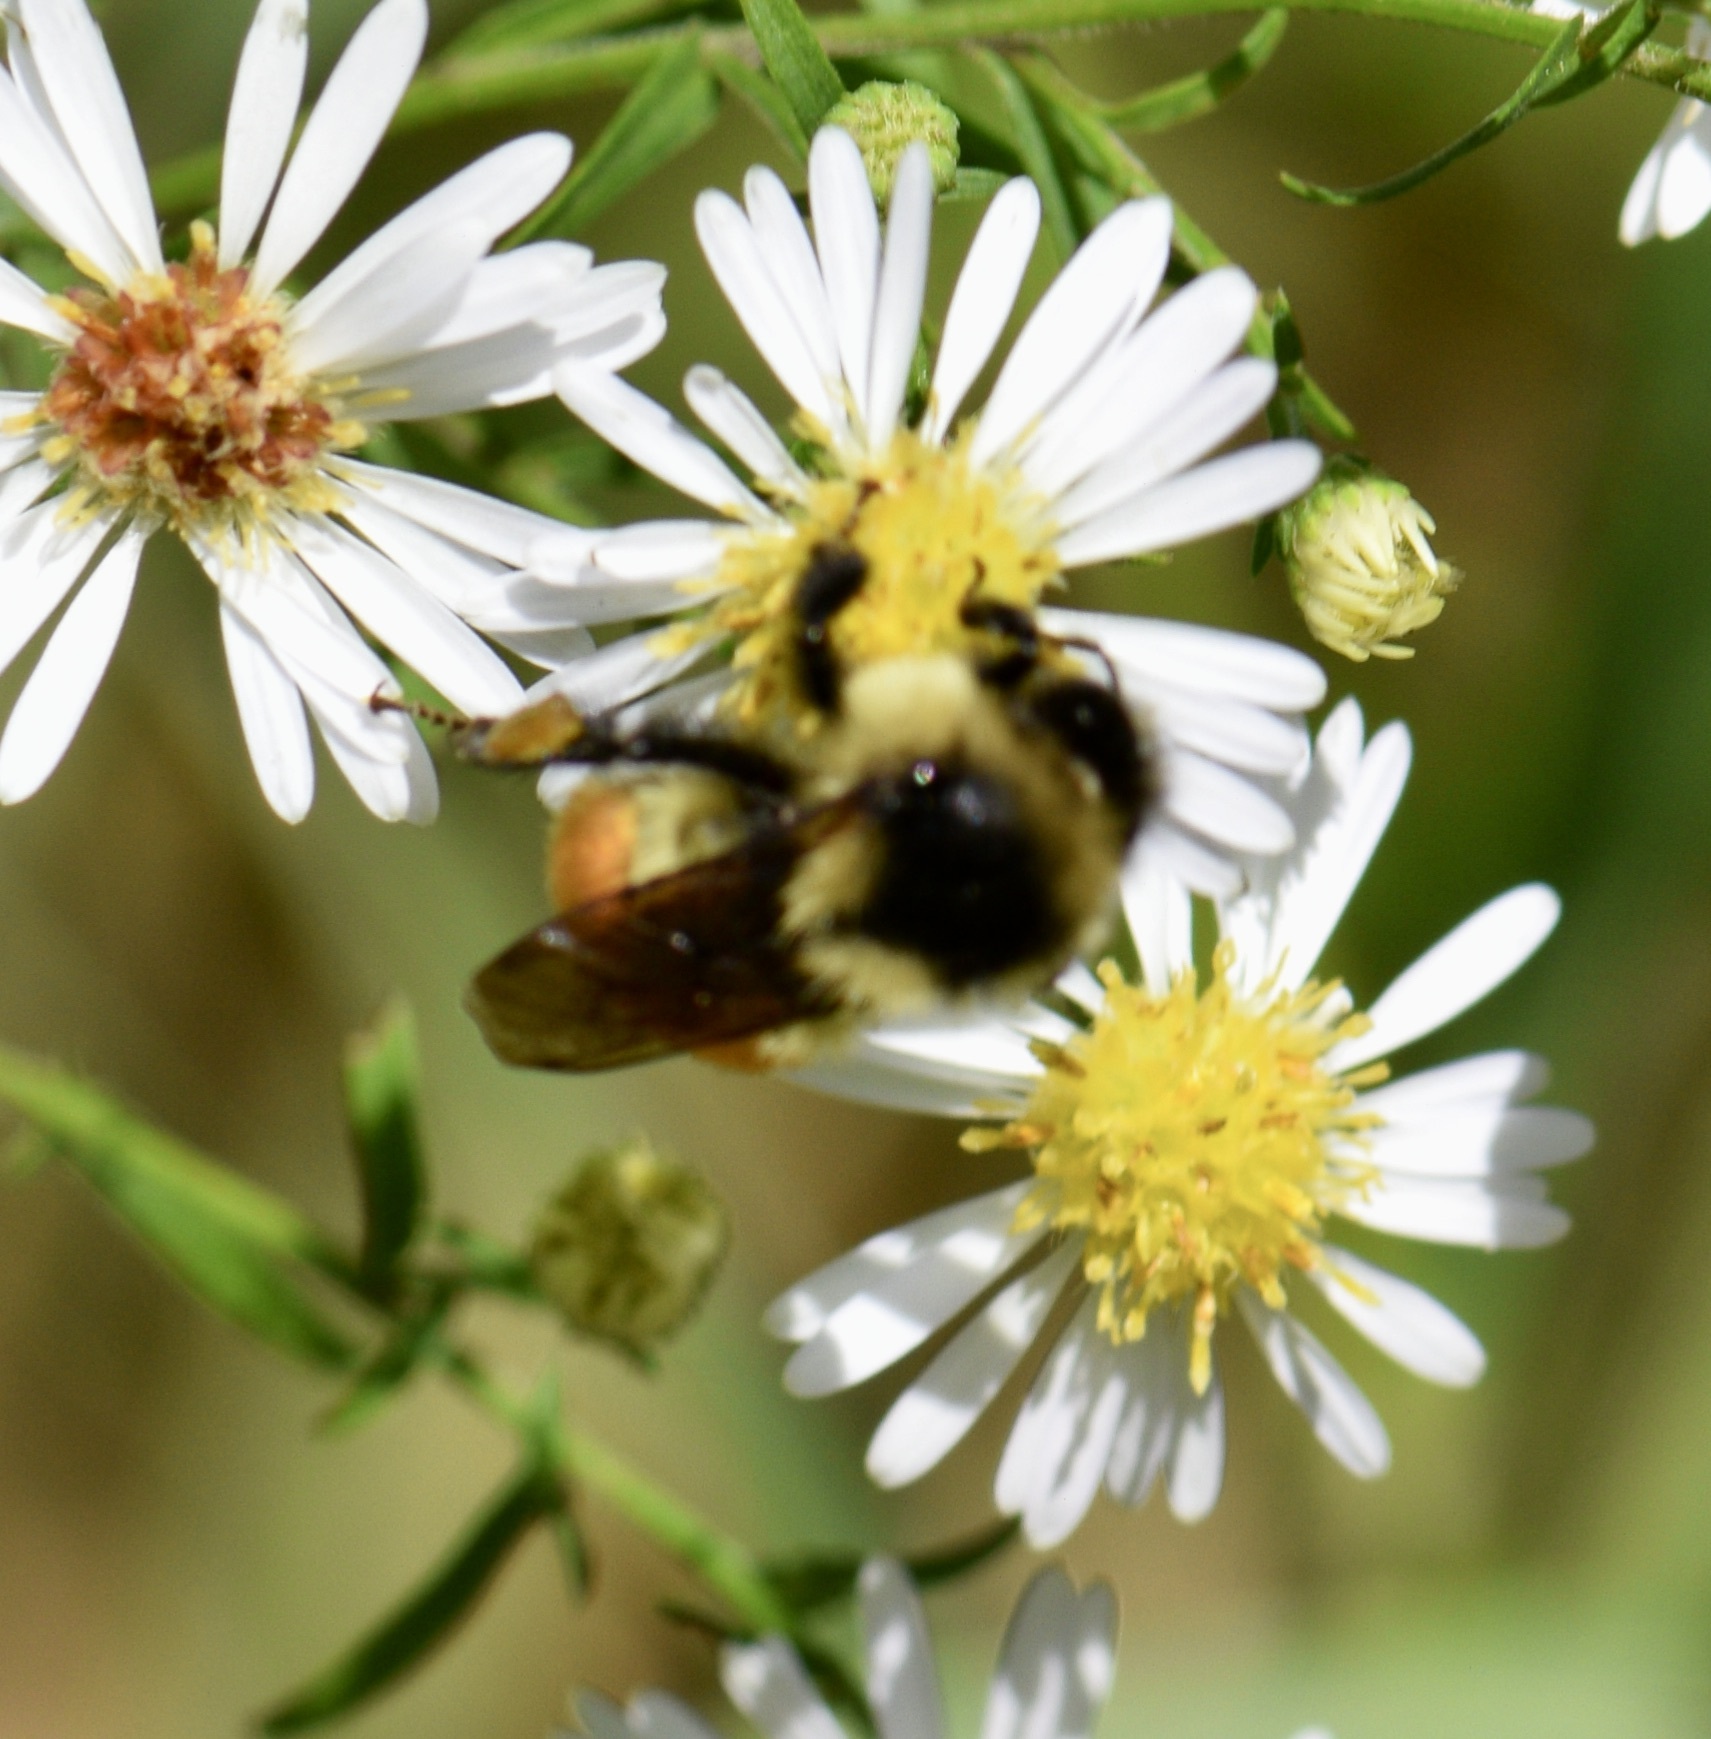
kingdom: Animalia
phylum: Arthropoda
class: Insecta
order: Hymenoptera
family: Apidae
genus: Bombus
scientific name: Bombus ternarius
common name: Tri-colored bumble bee
